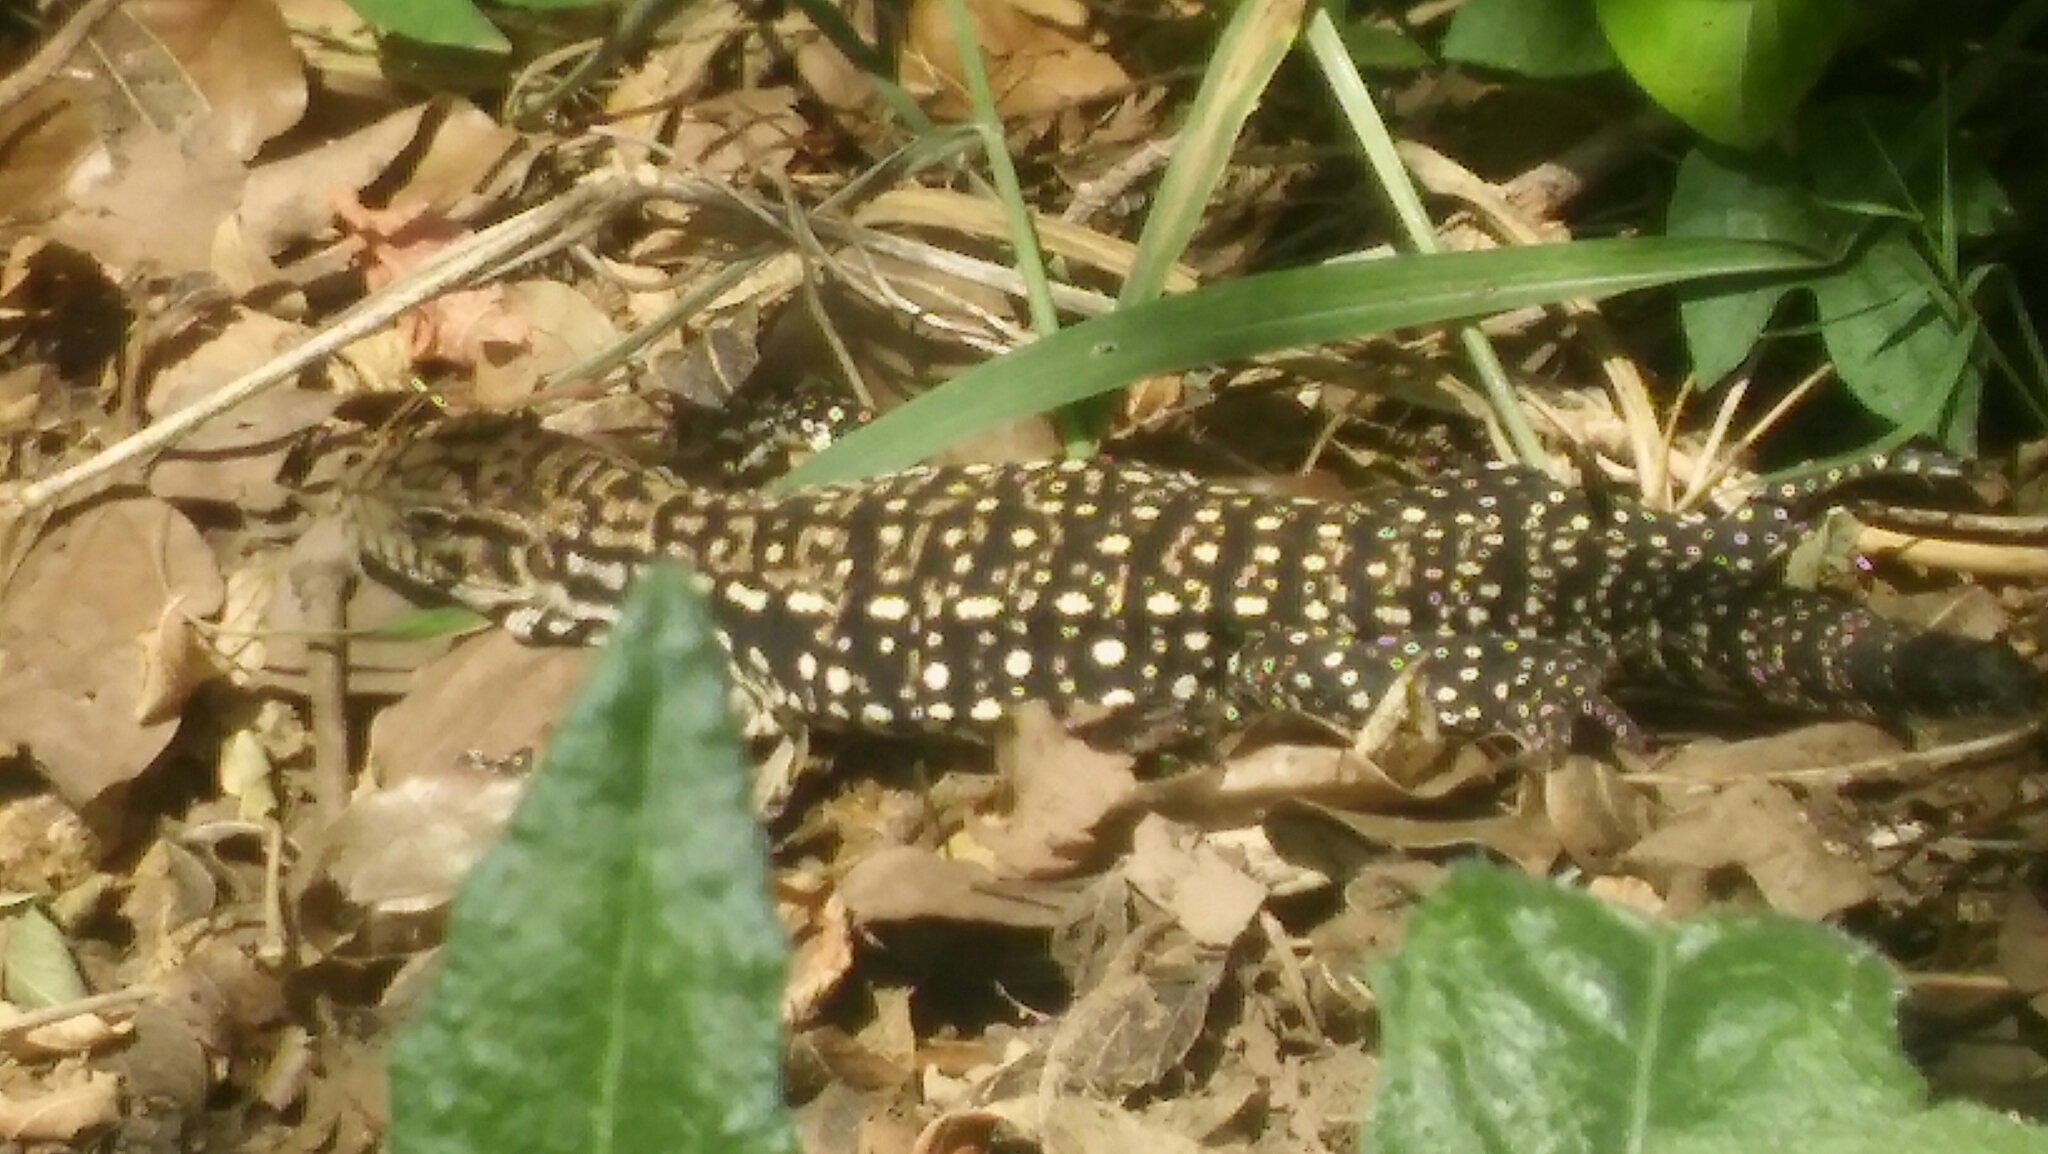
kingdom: Animalia
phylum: Chordata
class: Squamata
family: Teiidae
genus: Salvator
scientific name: Salvator merianae
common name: Argentine black and white tegu
